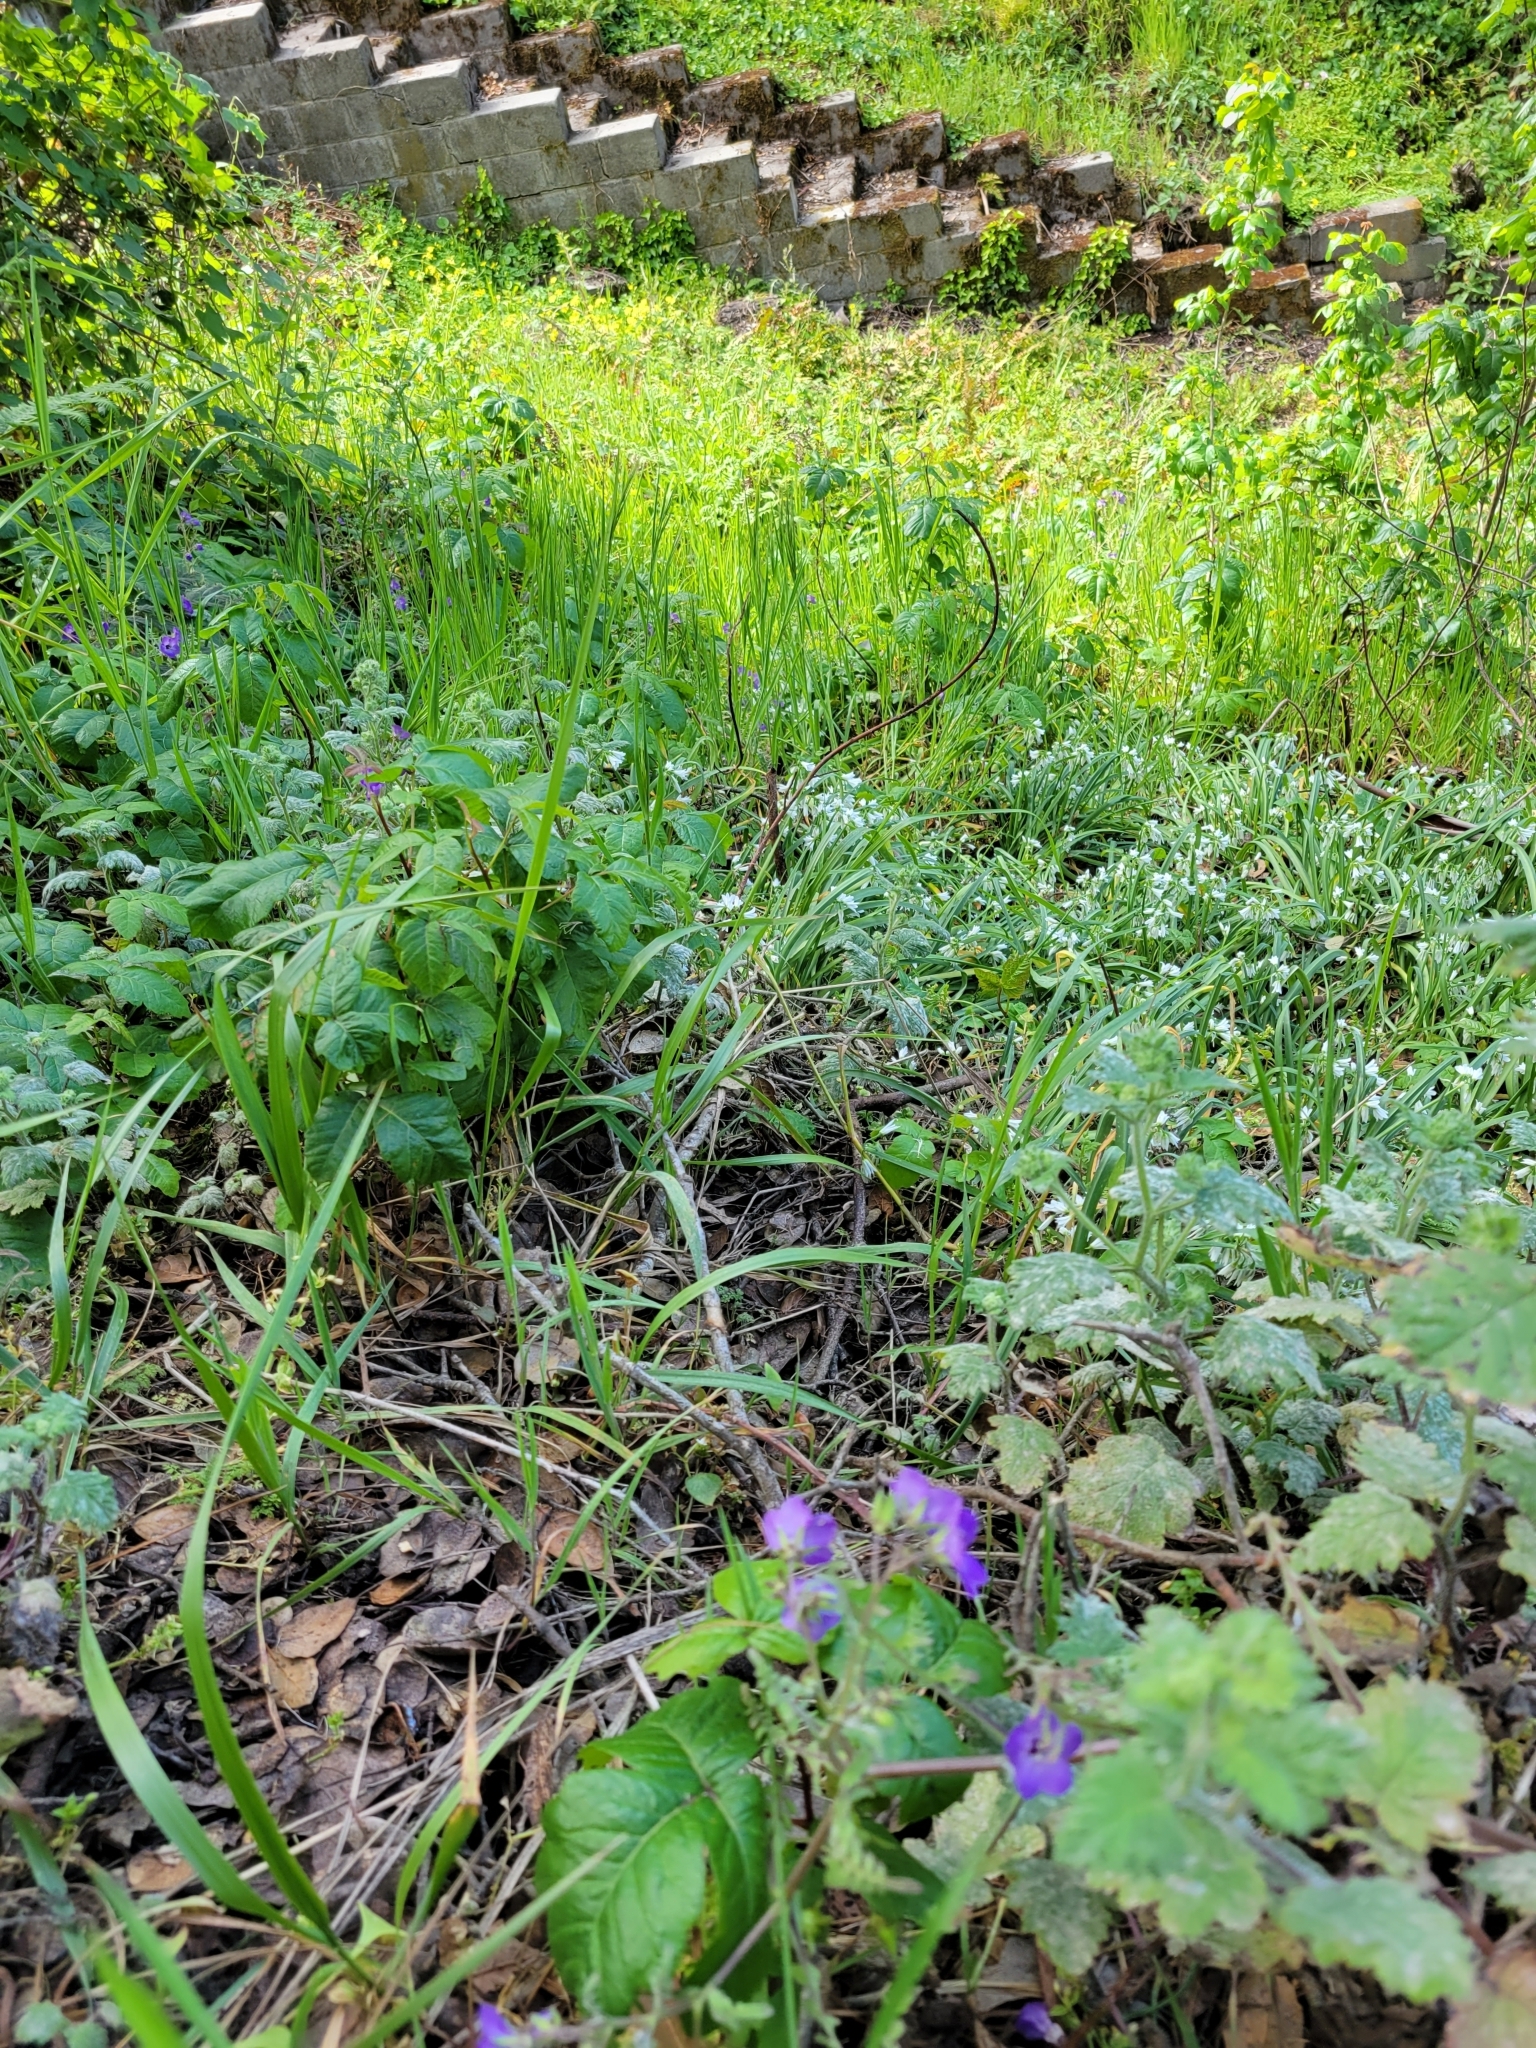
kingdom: Plantae
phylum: Tracheophyta
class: Magnoliopsida
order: Boraginales
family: Hydrophyllaceae
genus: Pholistoma
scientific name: Pholistoma auritum
